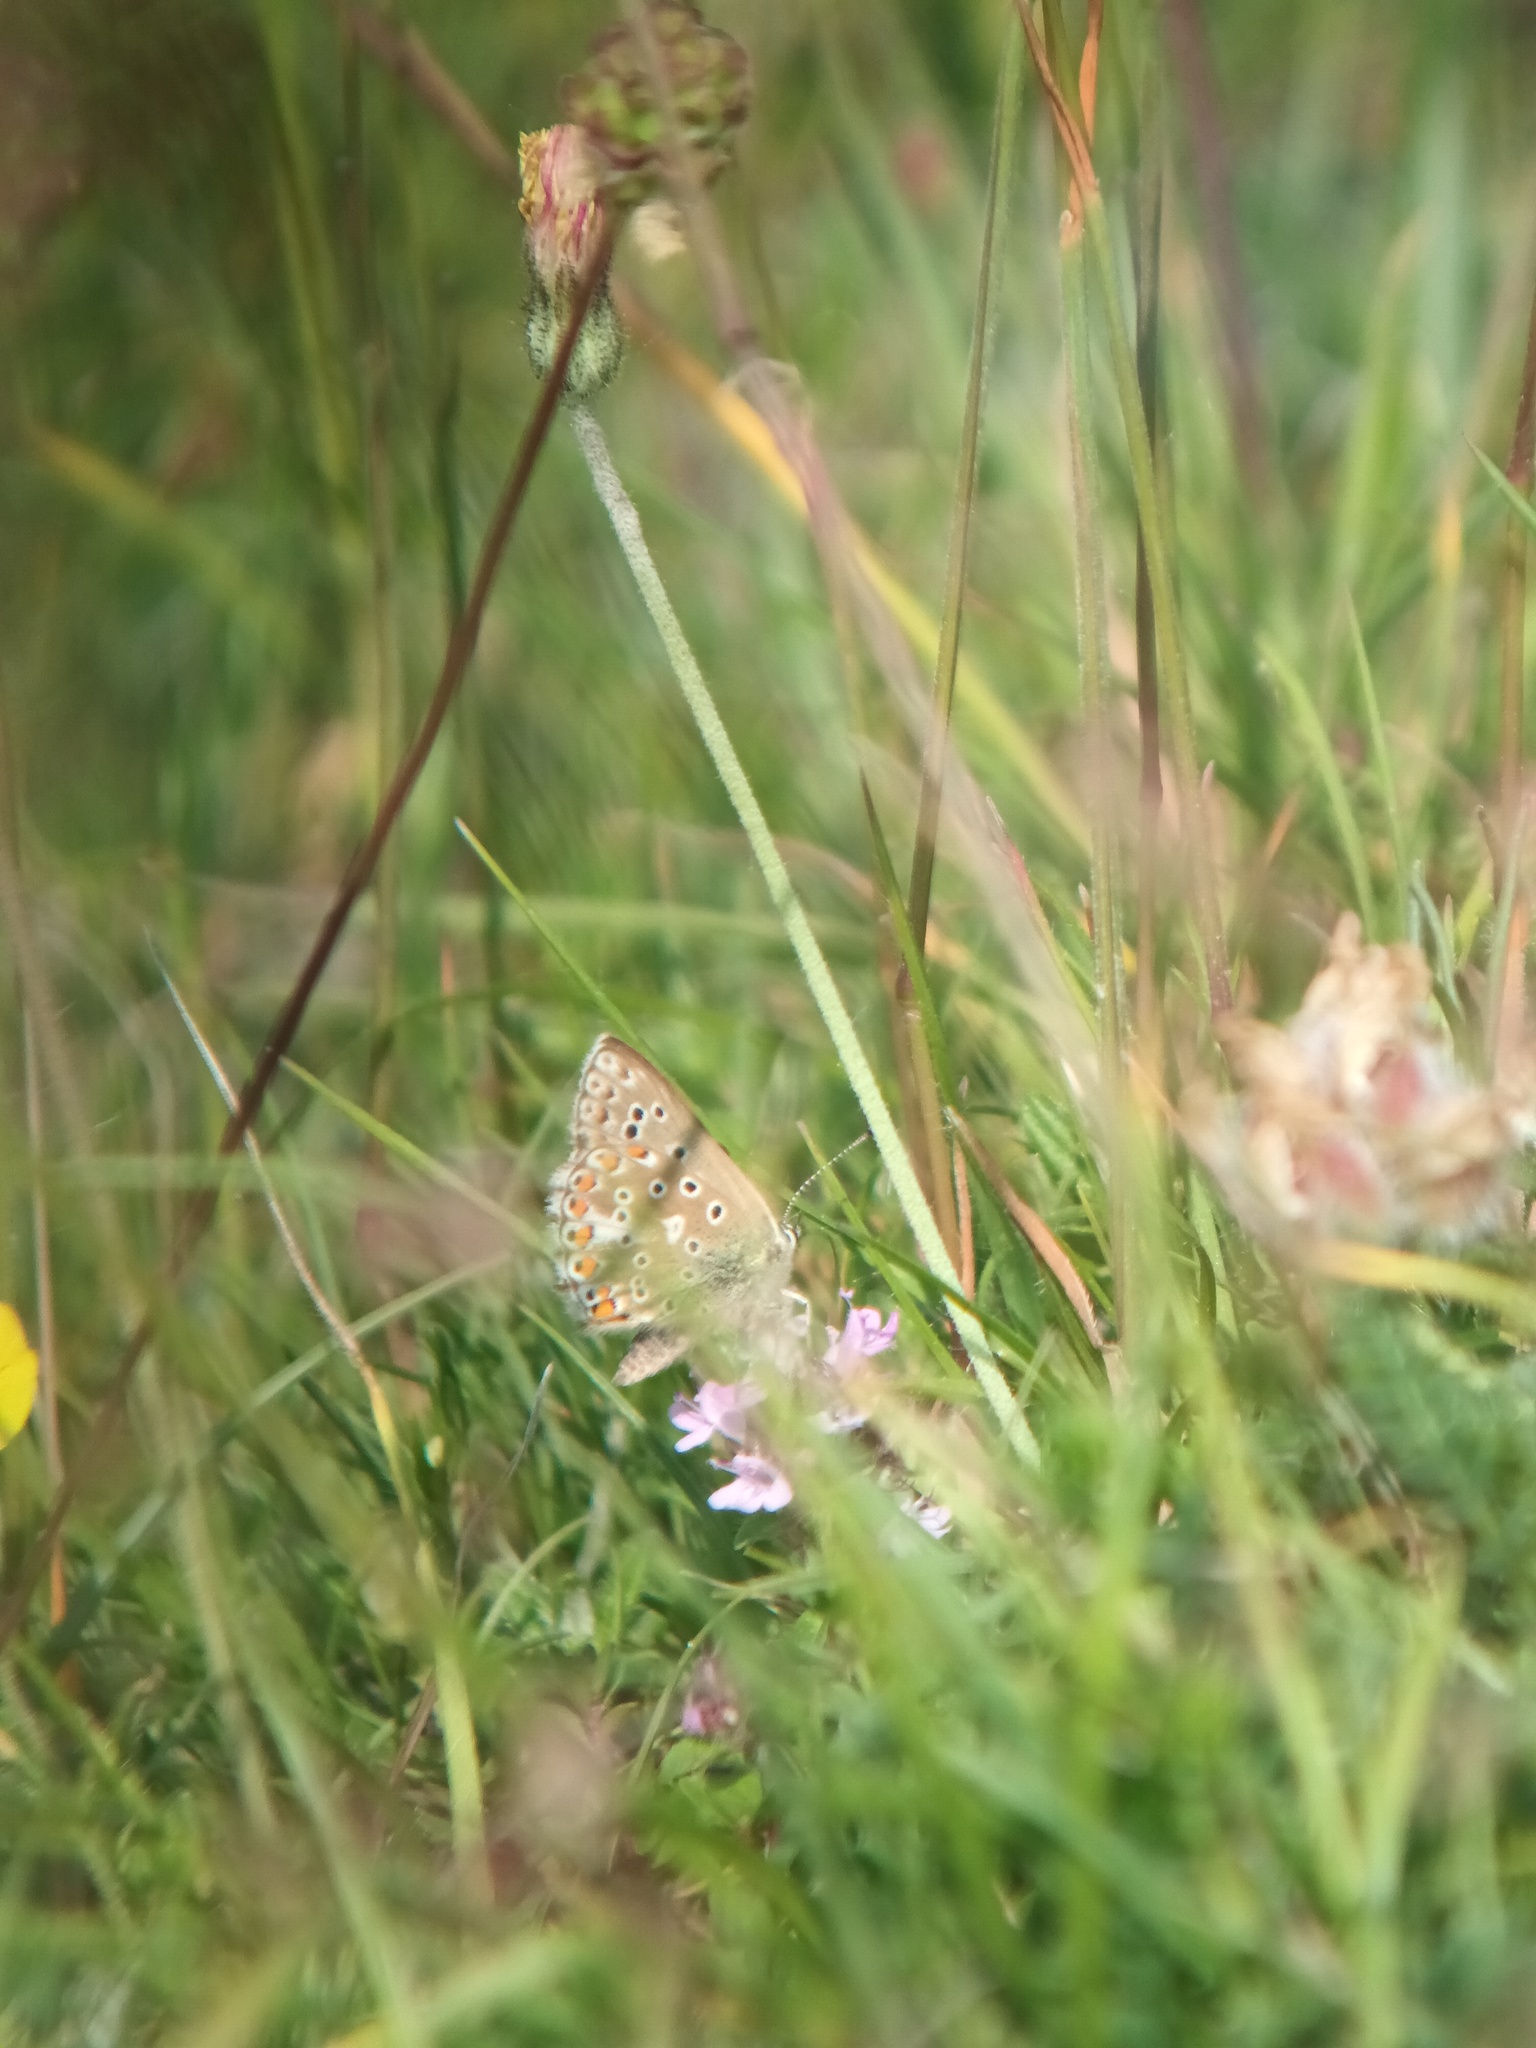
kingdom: Animalia
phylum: Arthropoda
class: Insecta
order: Lepidoptera
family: Lycaenidae
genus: Lysandra
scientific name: Lysandra bellargus
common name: Adonis blue
